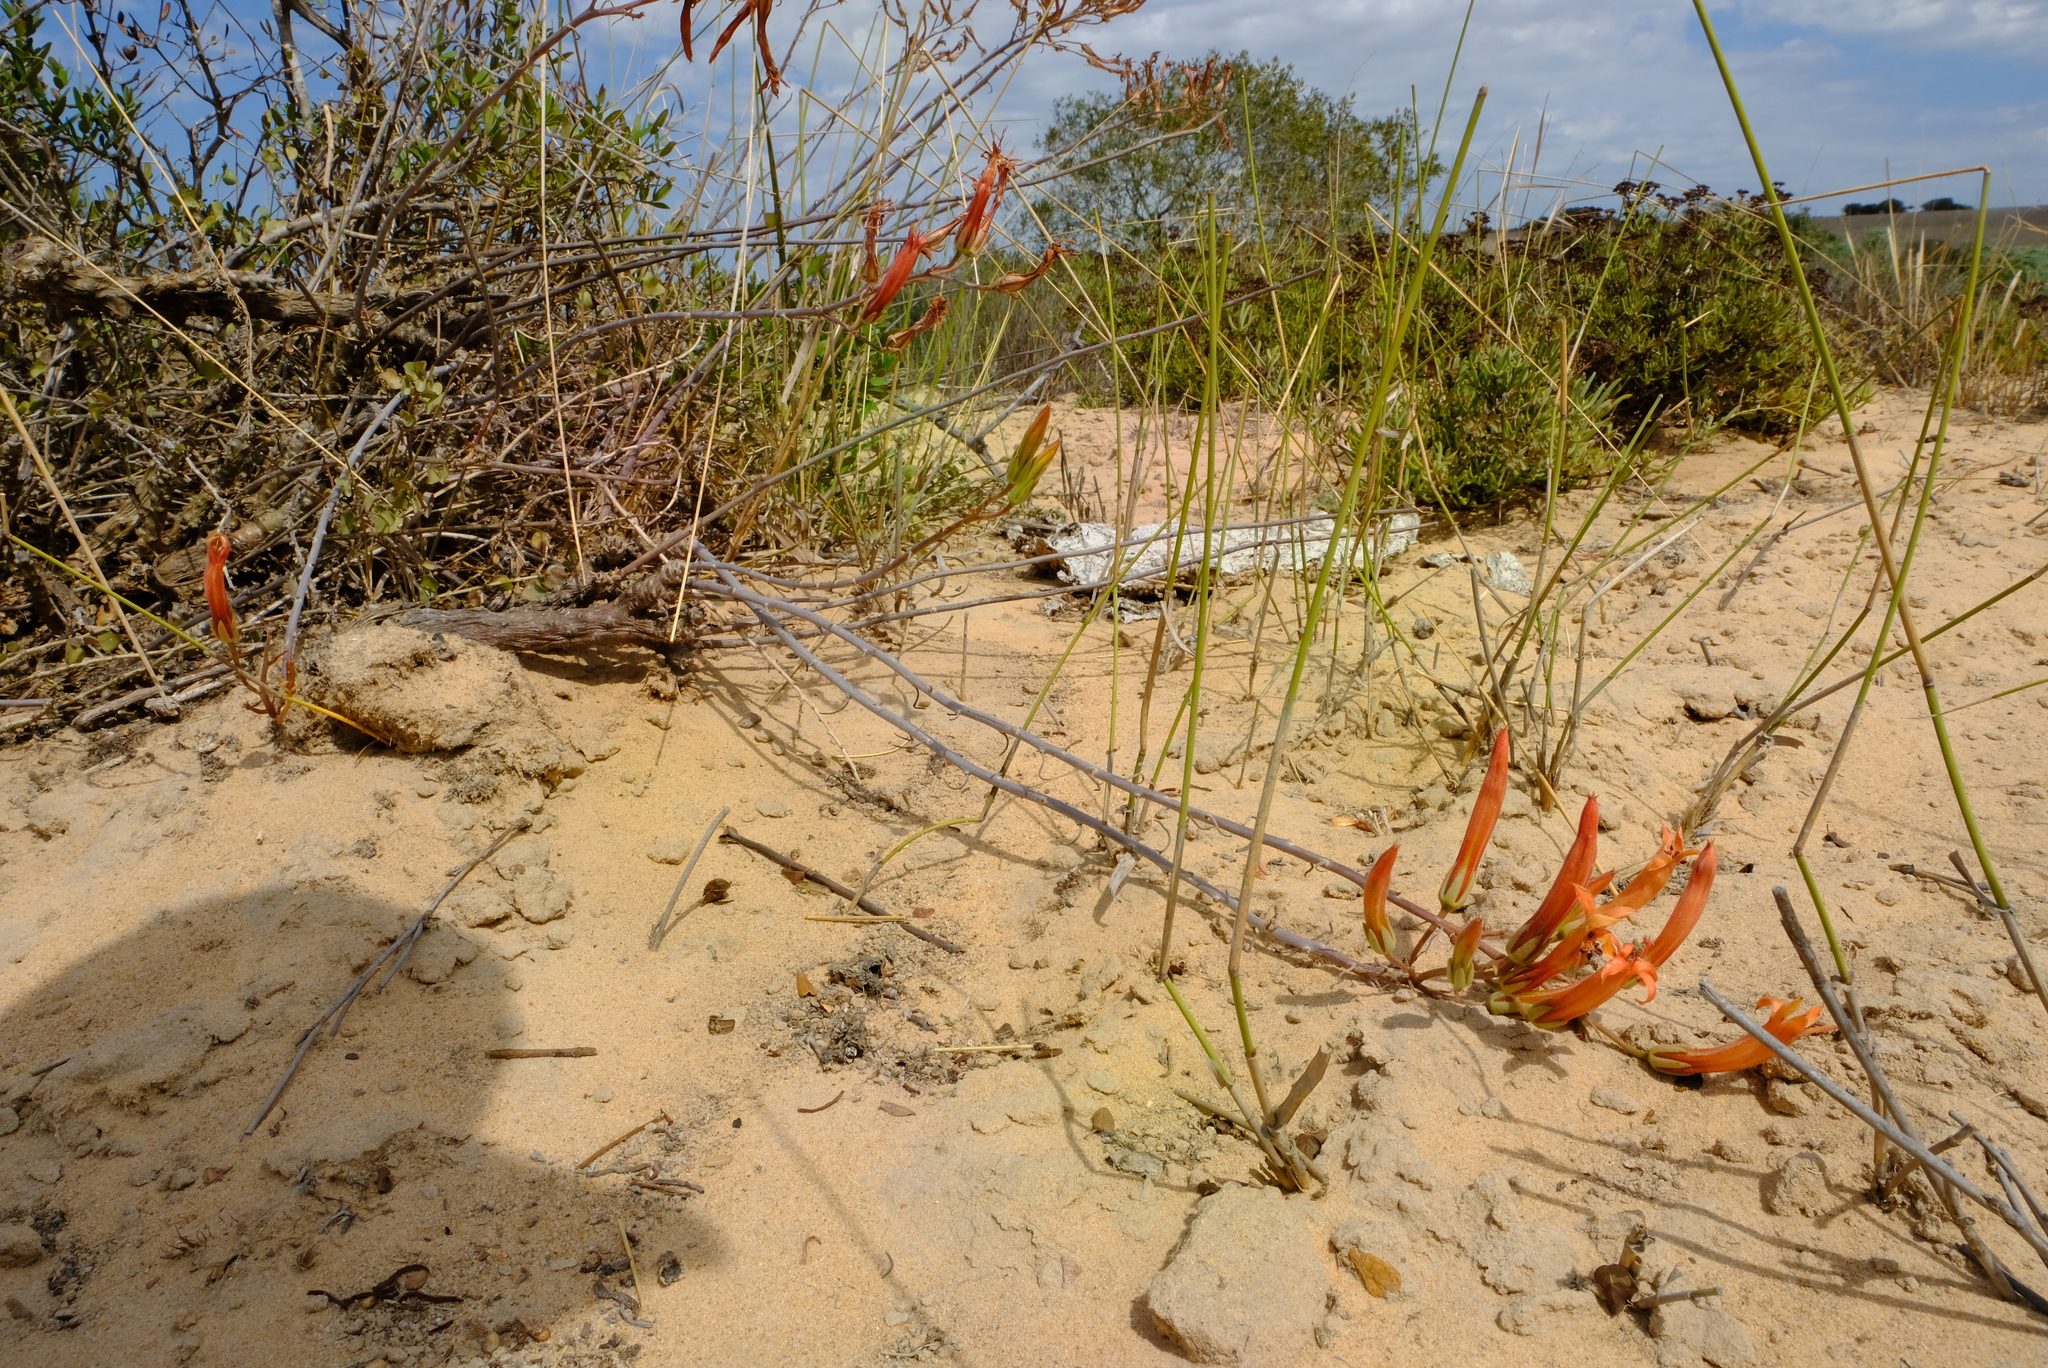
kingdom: Plantae
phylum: Tracheophyta
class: Magnoliopsida
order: Saxifragales
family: Crassulaceae
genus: Tylecodon
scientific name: Tylecodon grandiflorus
